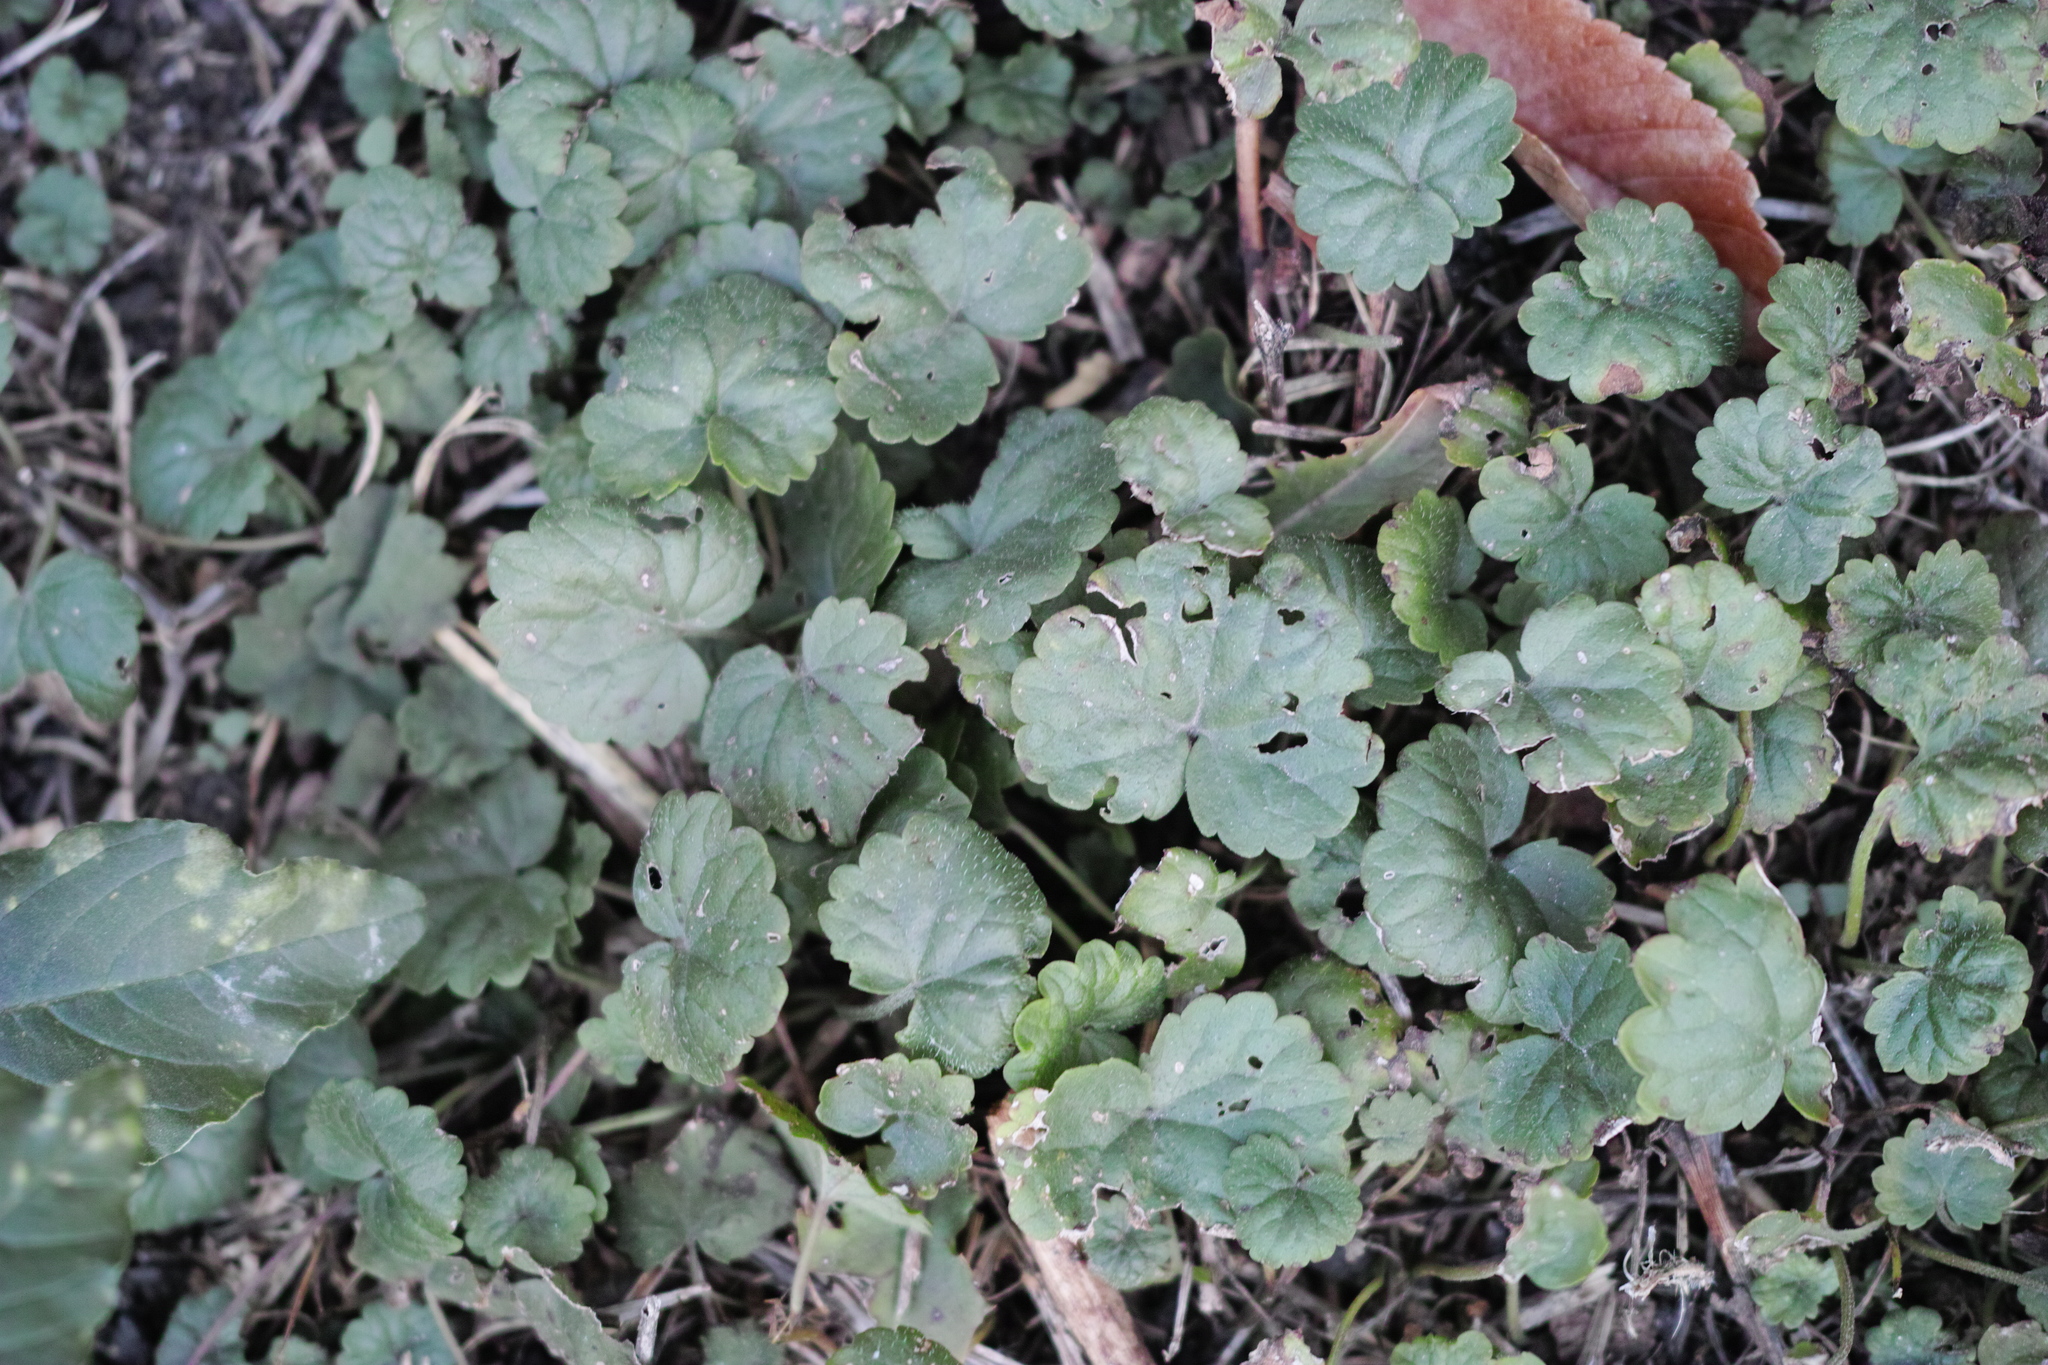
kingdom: Plantae
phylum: Tracheophyta
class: Magnoliopsida
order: Lamiales
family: Lamiaceae
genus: Glechoma
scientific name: Glechoma hederacea
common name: Ground ivy
